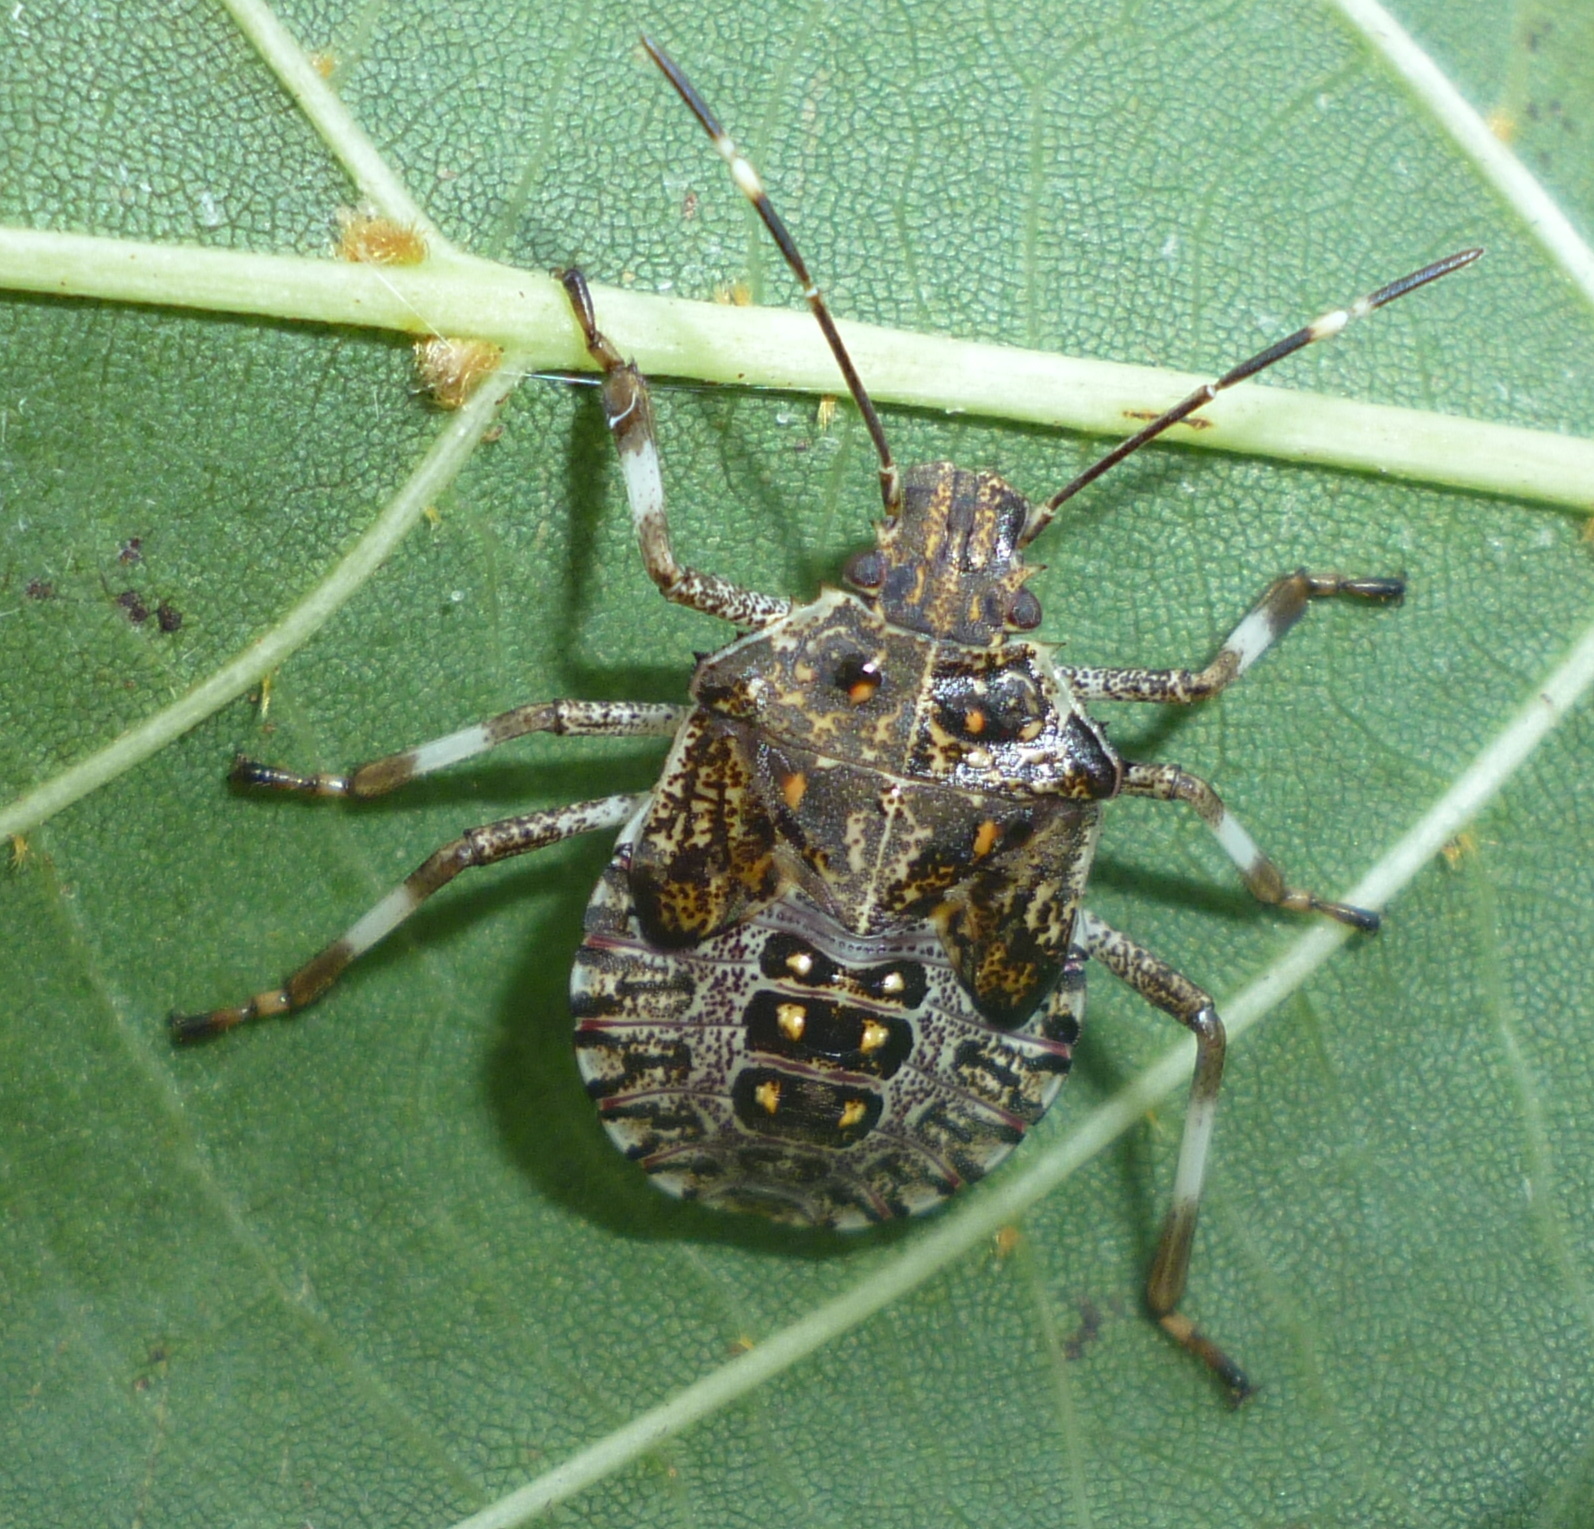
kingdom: Animalia
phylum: Arthropoda
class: Insecta
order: Hemiptera
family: Pentatomidae
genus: Halyomorpha
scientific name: Halyomorpha halys
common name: Brown marmorated stink bug
